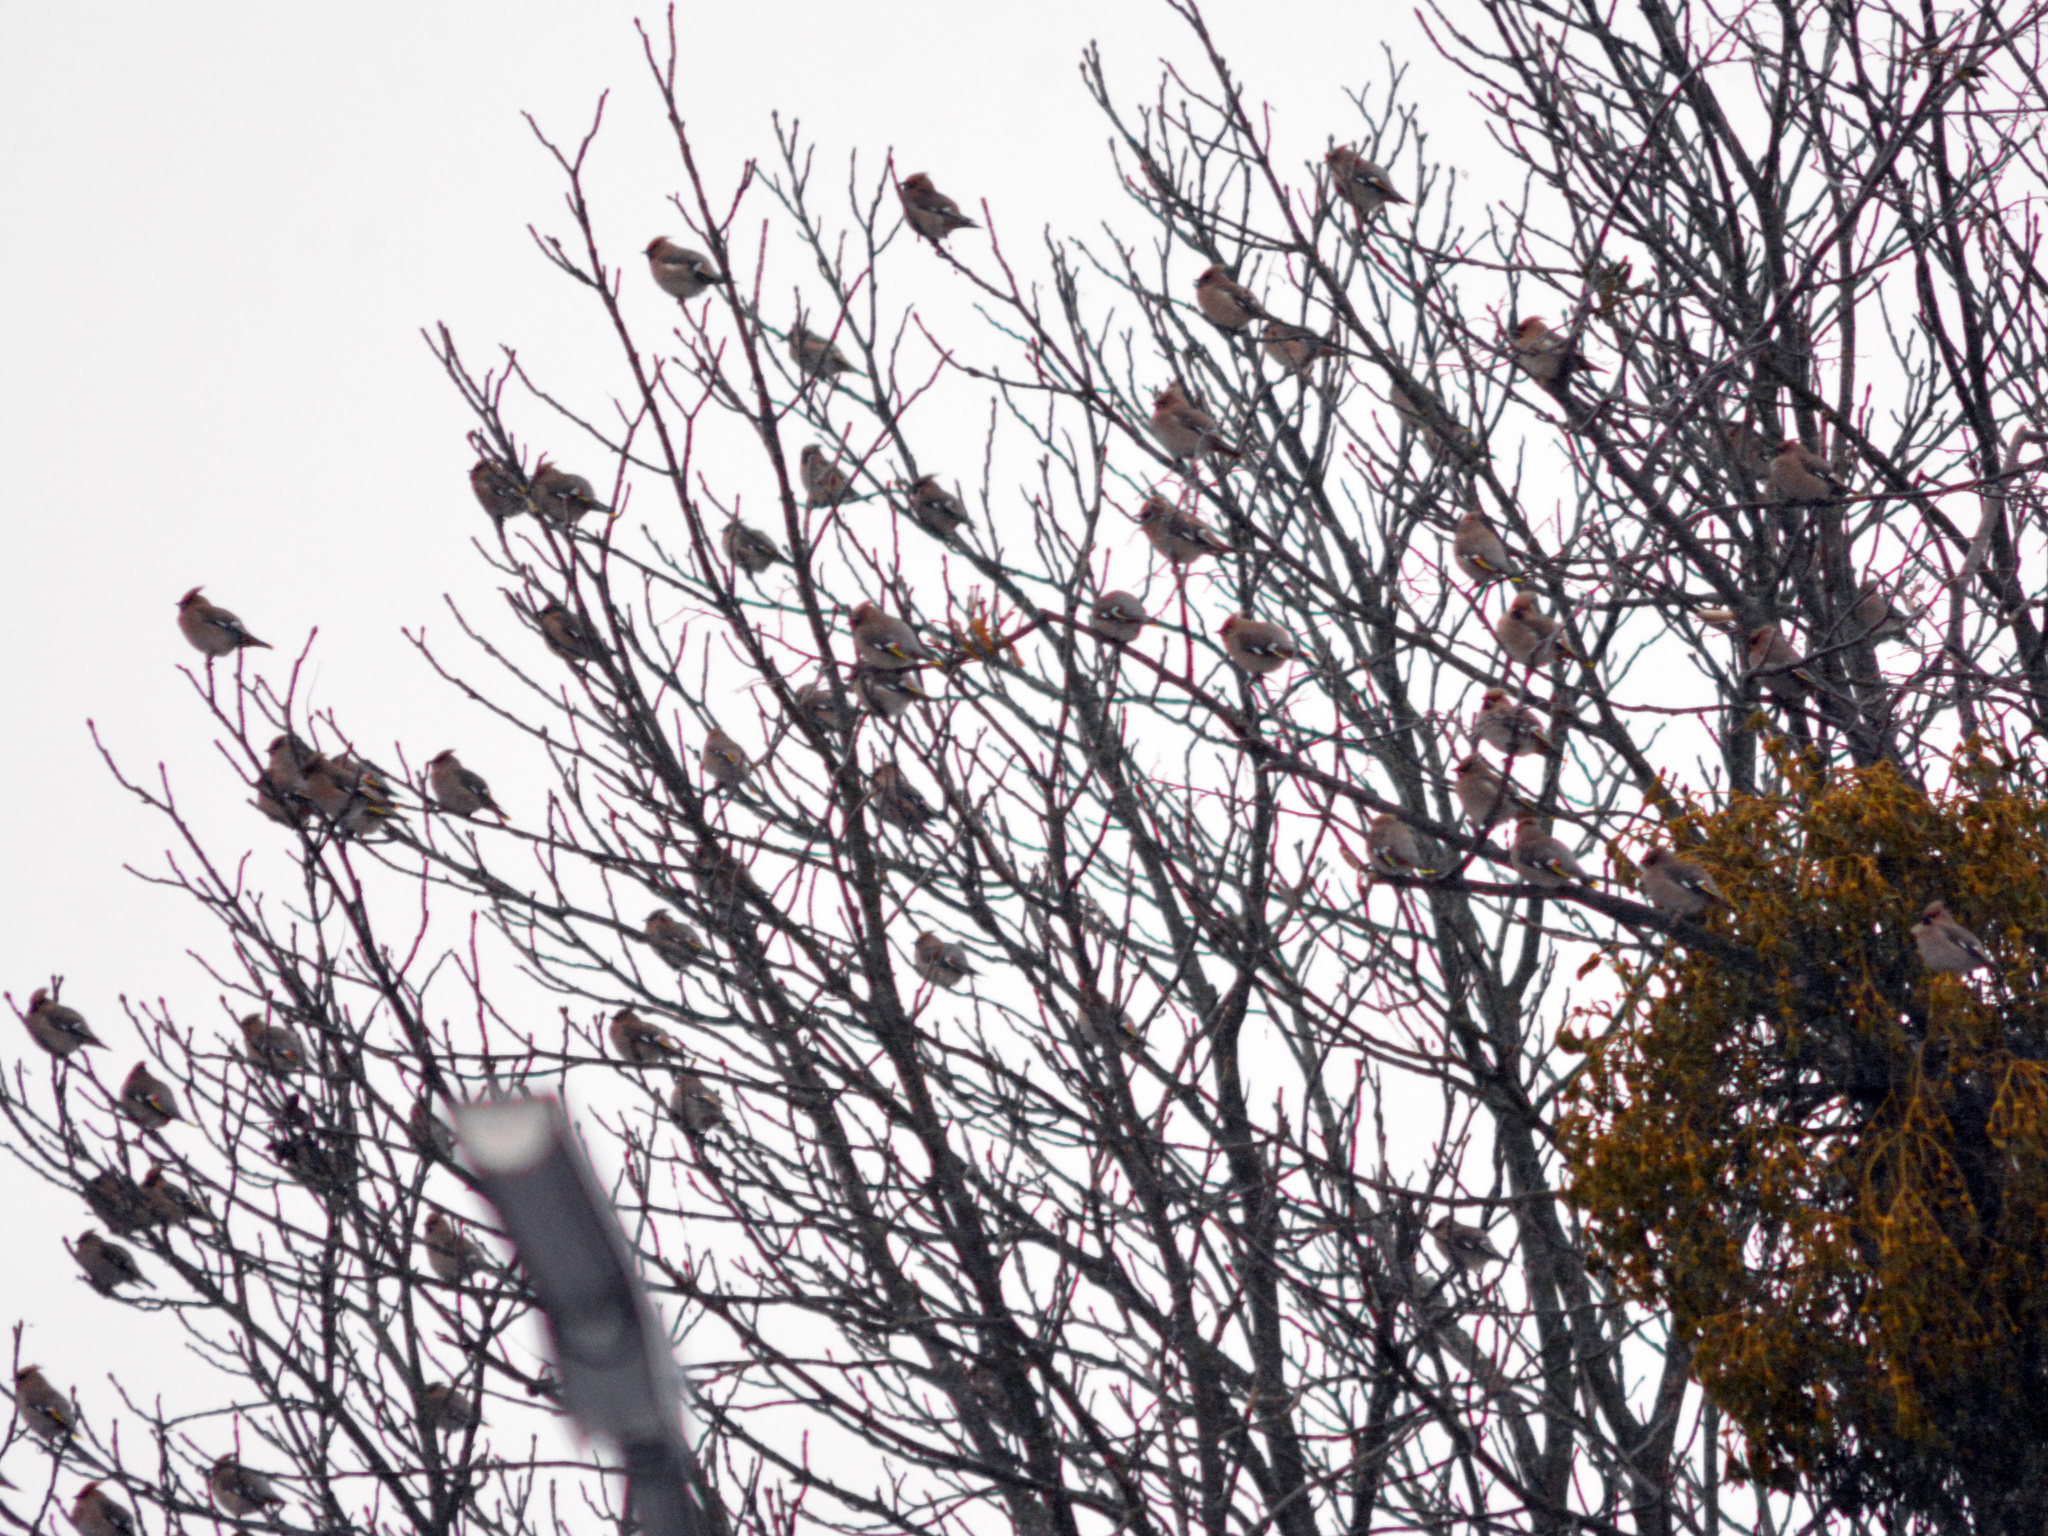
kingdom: Animalia
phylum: Chordata
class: Aves
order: Passeriformes
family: Bombycillidae
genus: Bombycilla
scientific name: Bombycilla garrulus
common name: Bohemian waxwing
